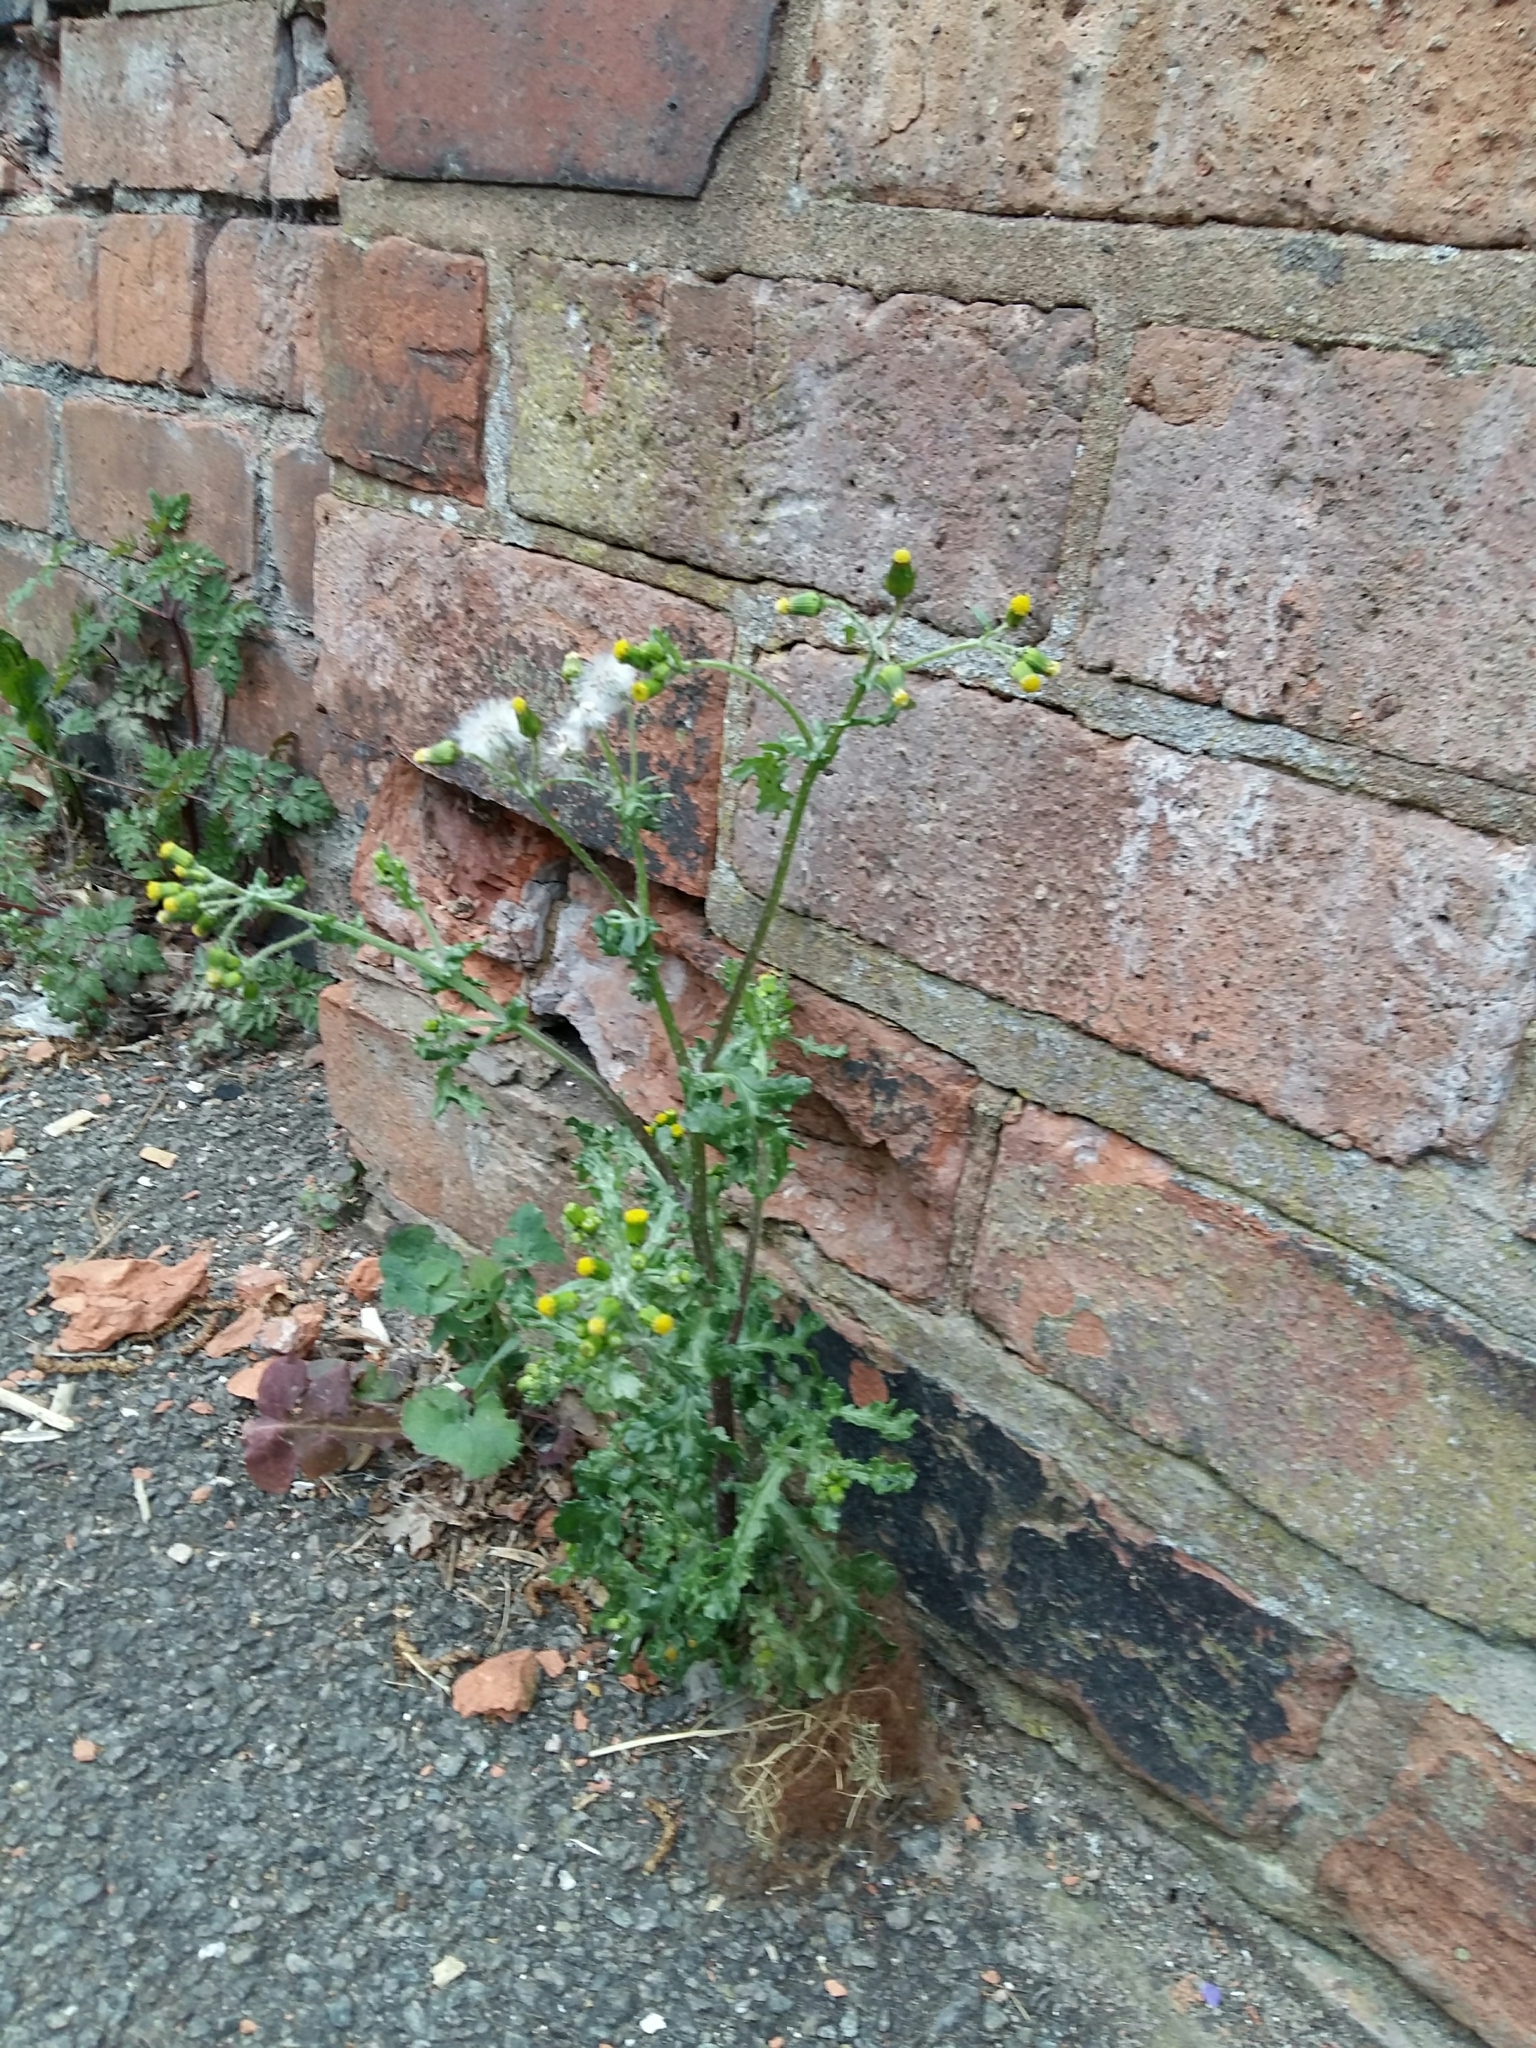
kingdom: Plantae
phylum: Tracheophyta
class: Magnoliopsida
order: Asterales
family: Asteraceae
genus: Senecio
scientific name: Senecio vulgaris
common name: Old-man-in-the-spring
